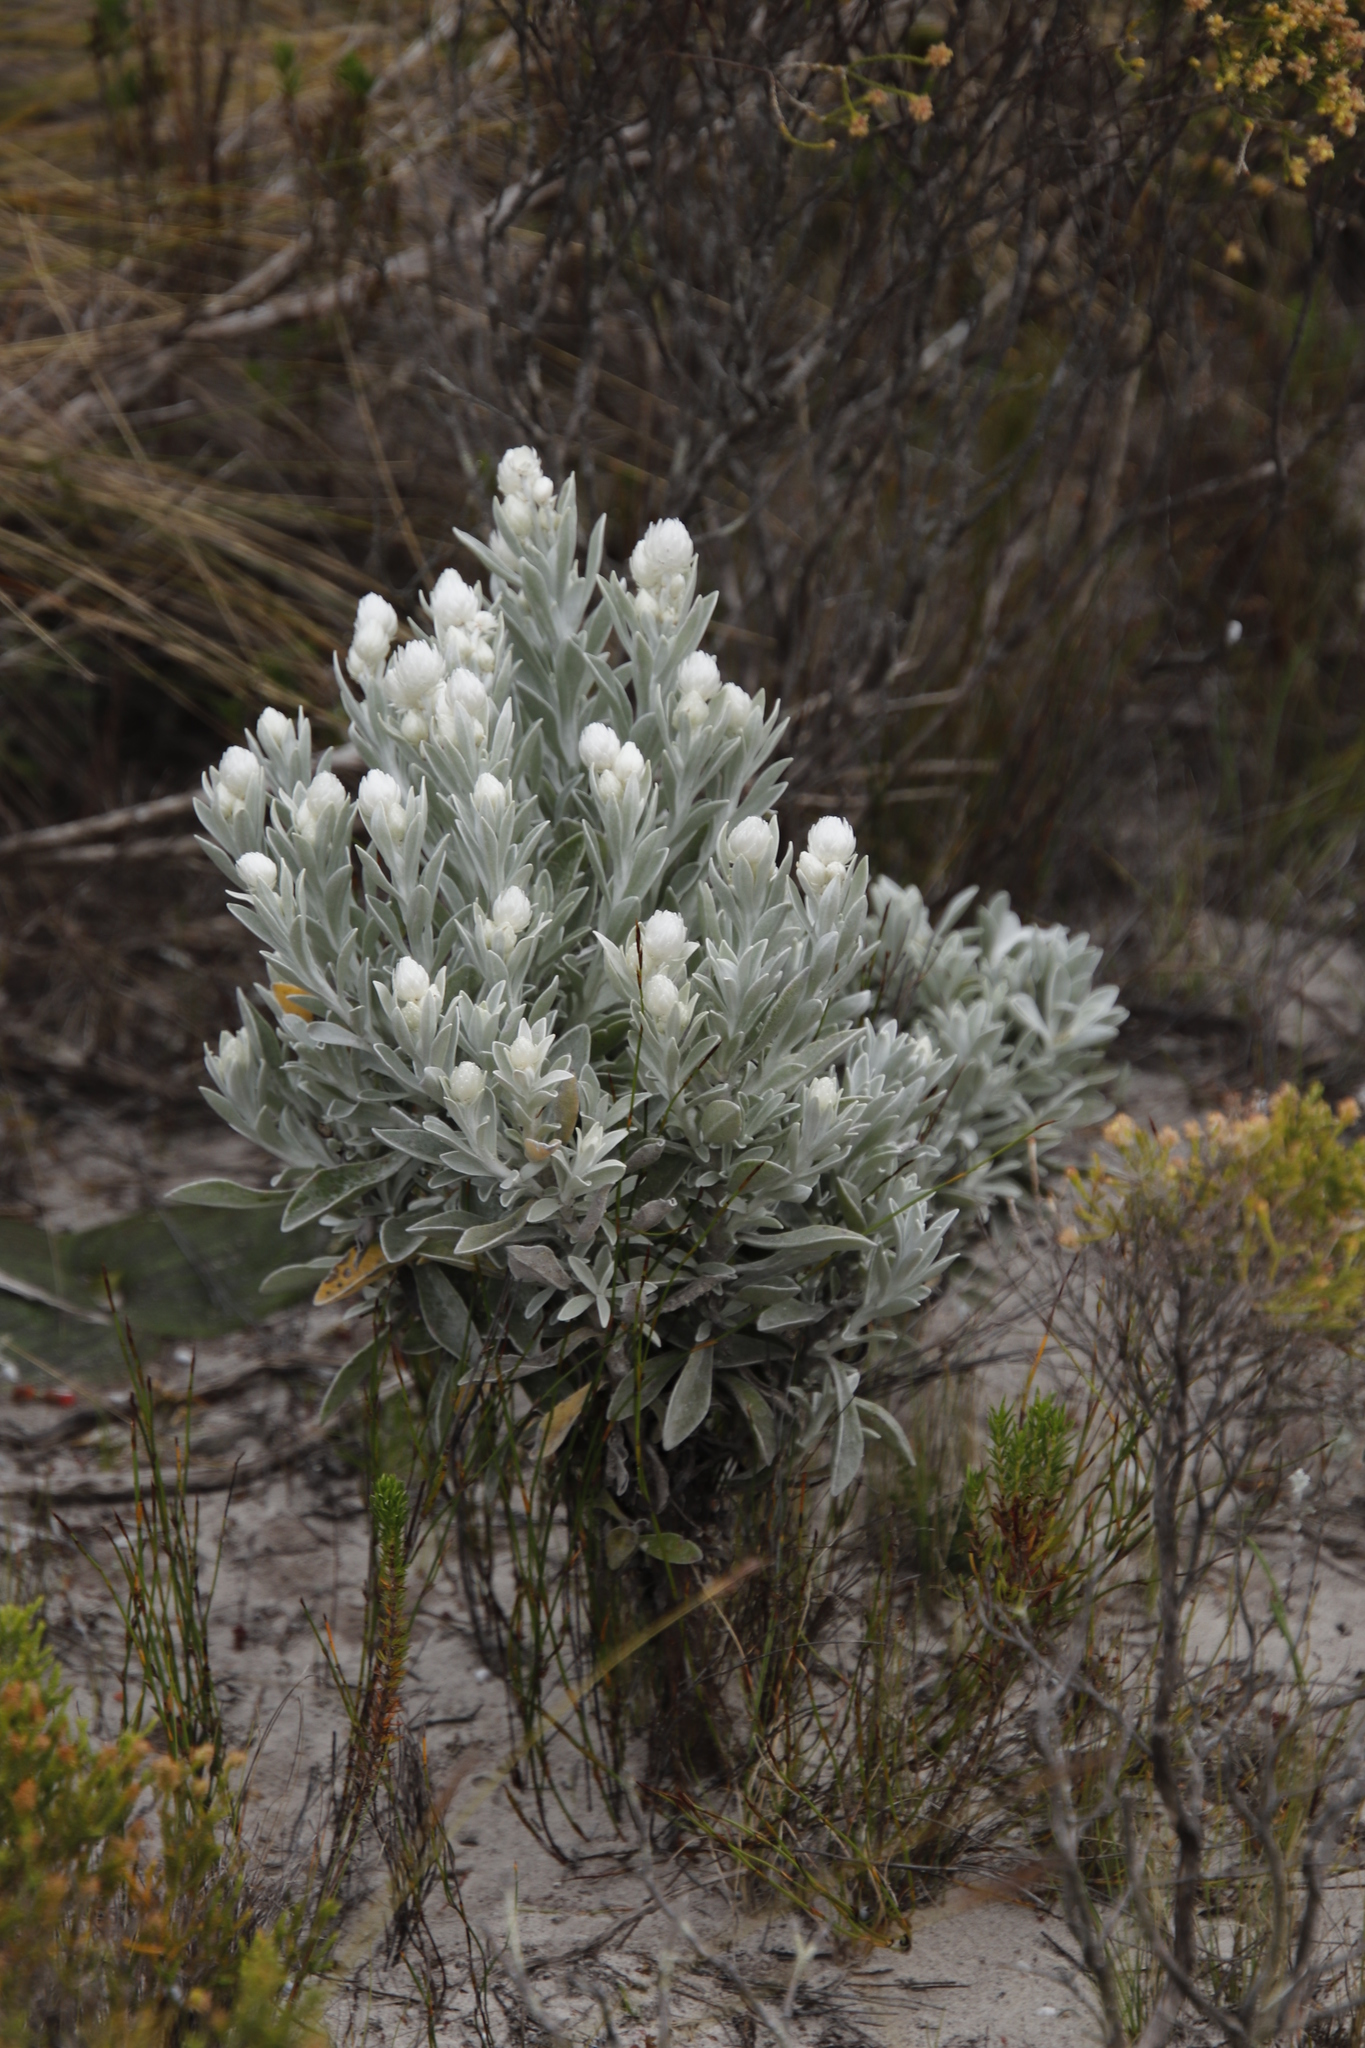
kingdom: Plantae
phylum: Tracheophyta
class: Magnoliopsida
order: Asterales
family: Asteraceae
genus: Syncarpha
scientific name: Syncarpha vestita
